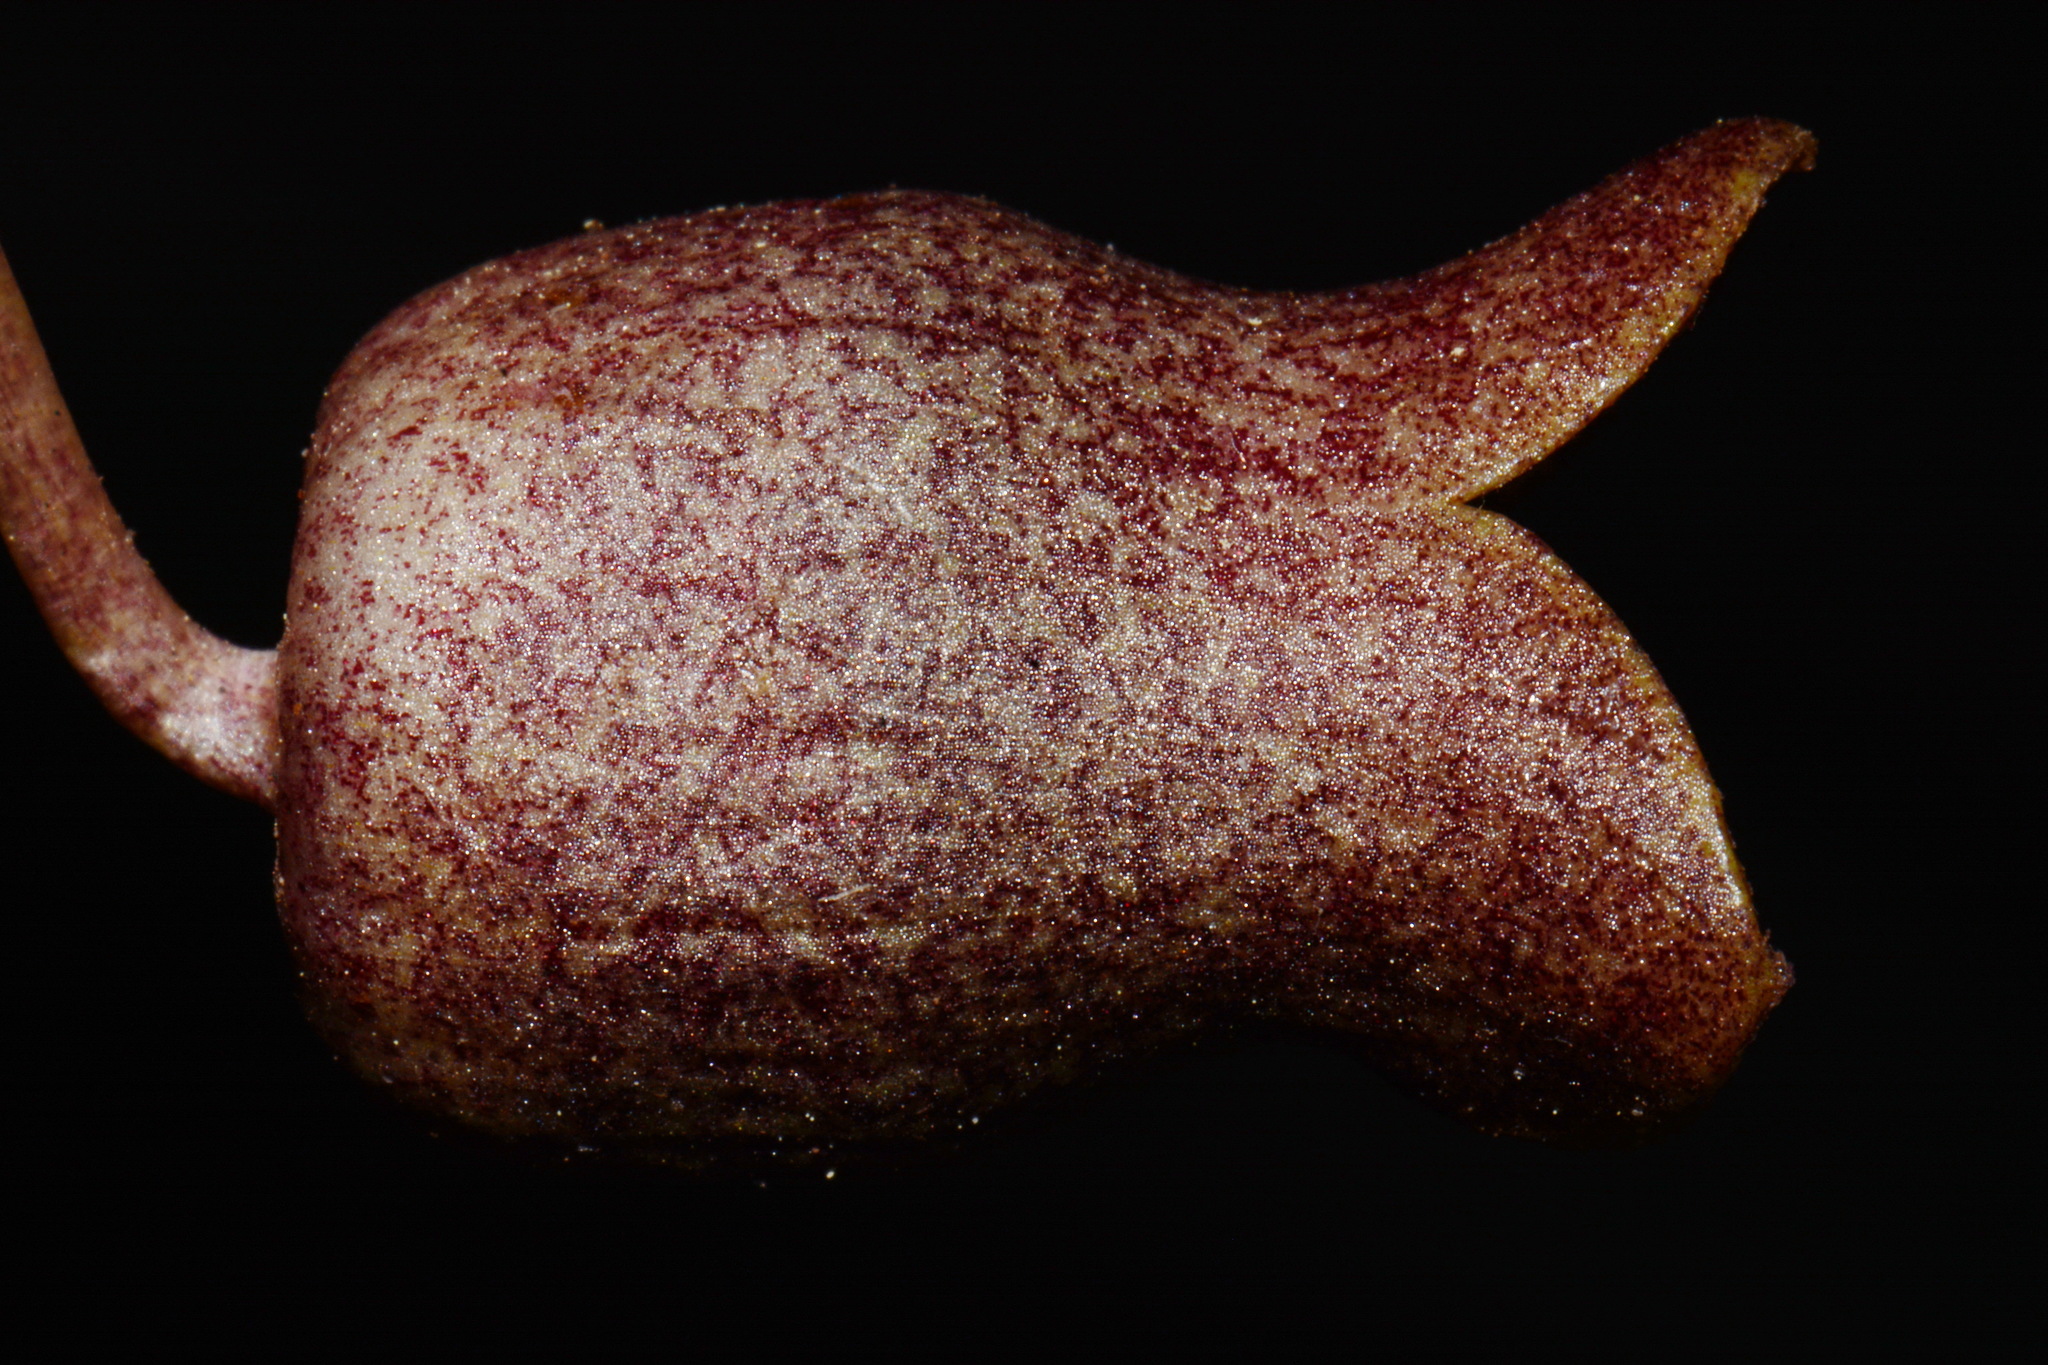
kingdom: Plantae
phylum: Tracheophyta
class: Magnoliopsida
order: Piperales
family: Aristolochiaceae
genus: Hexastylis
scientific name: Hexastylis harperi
